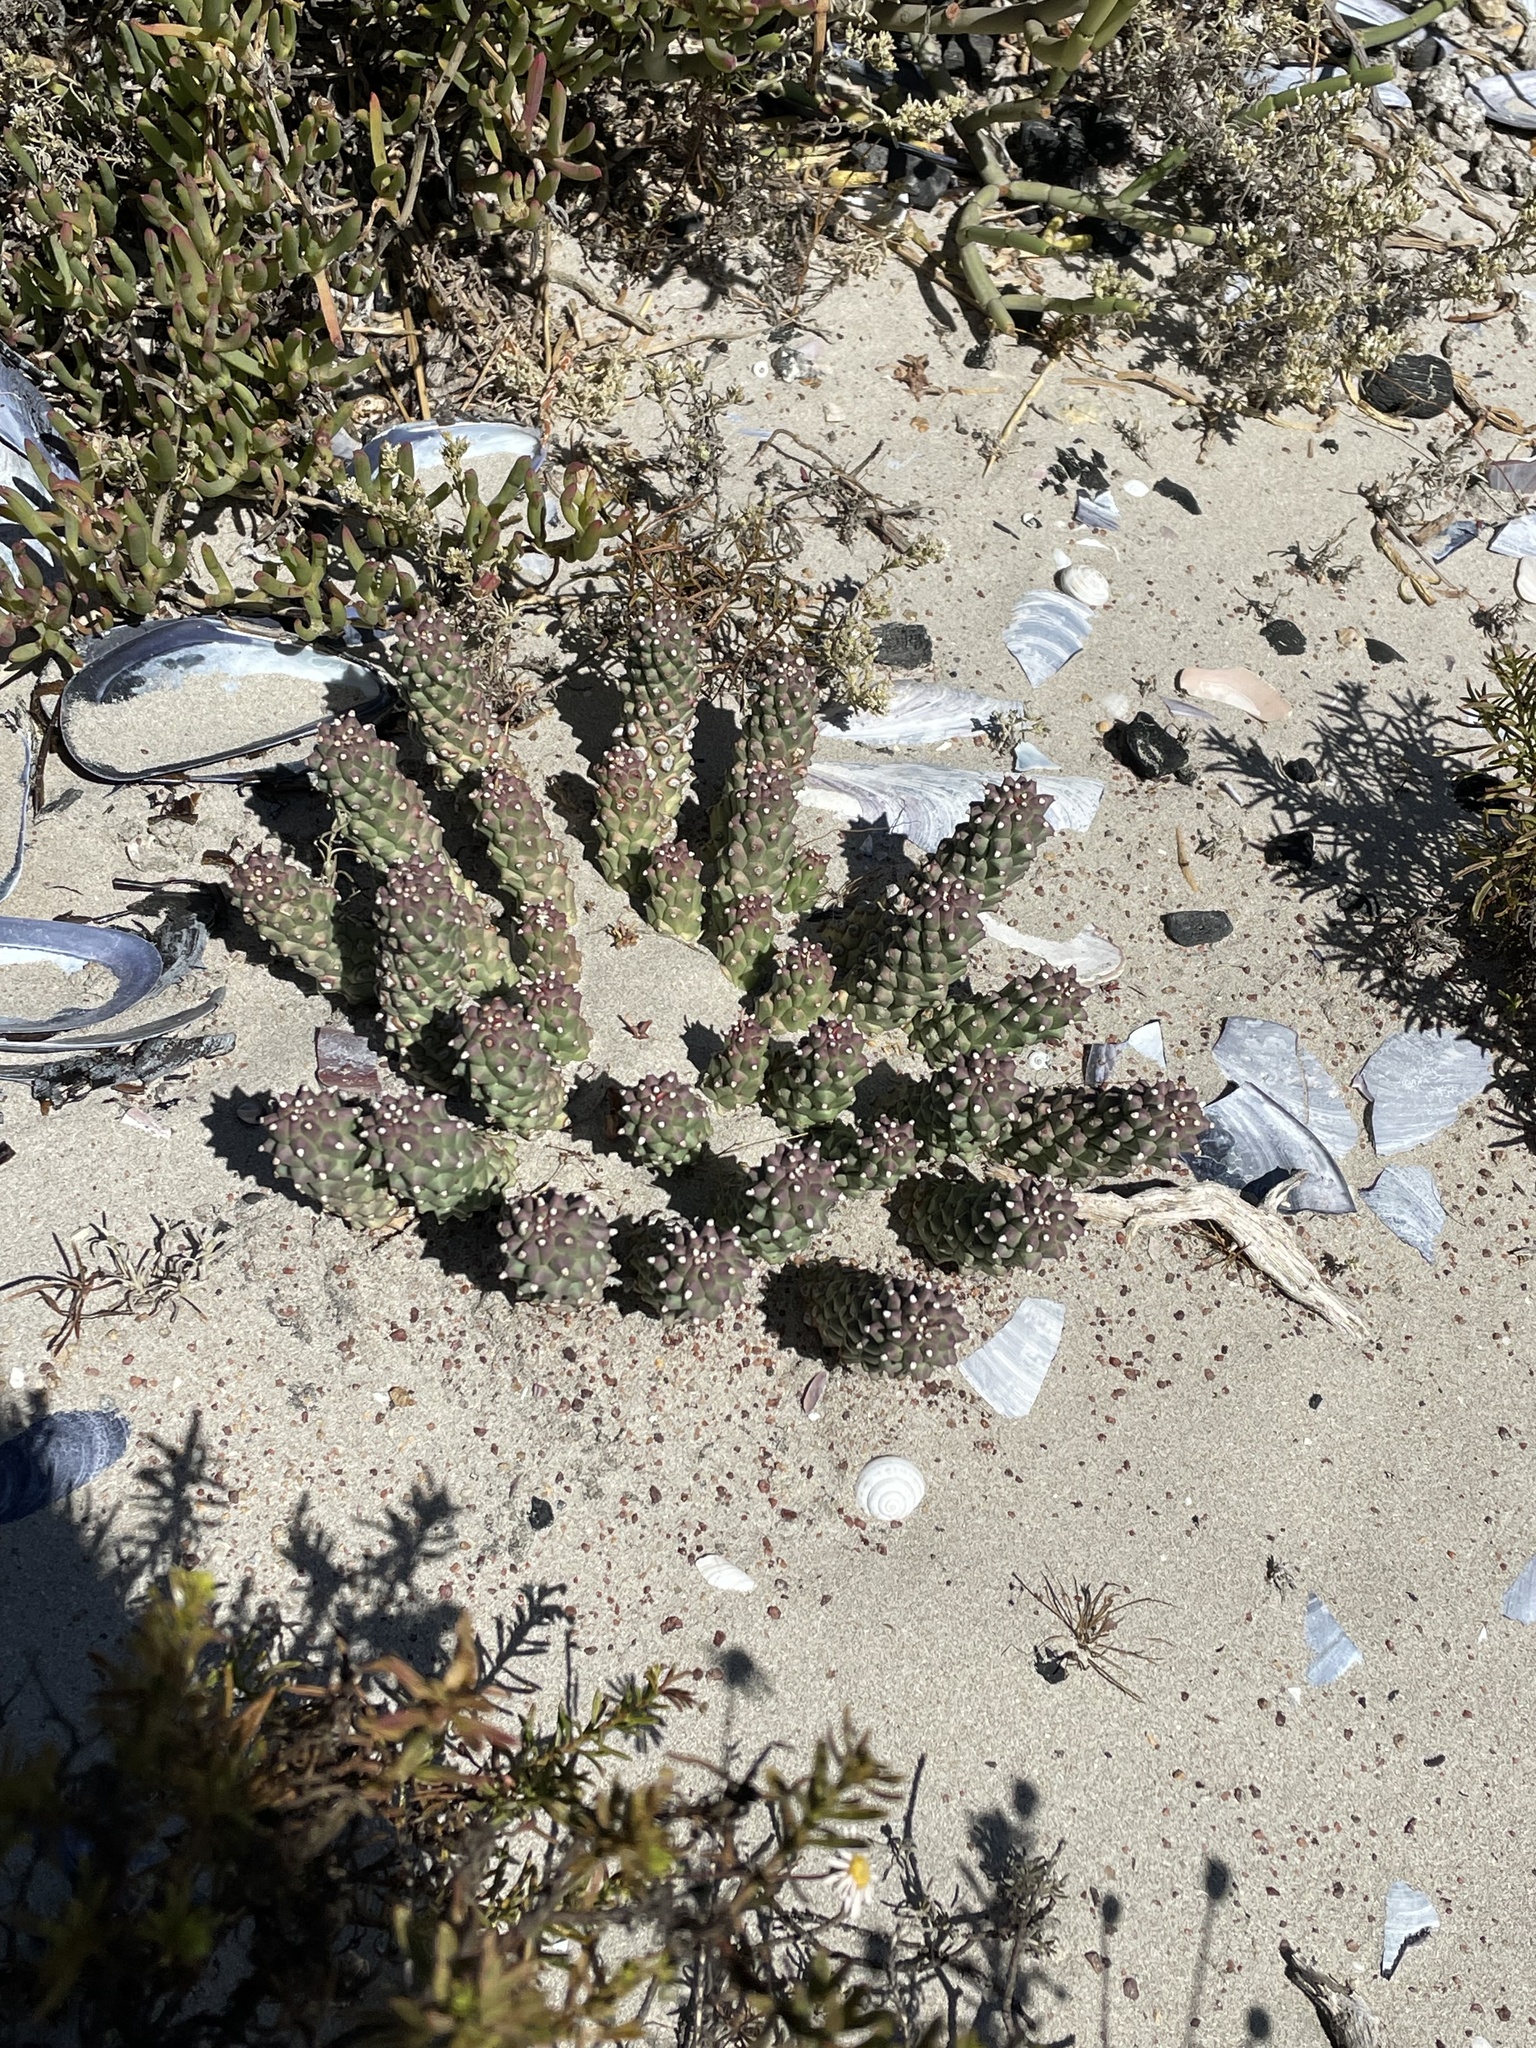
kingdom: Plantae
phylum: Tracheophyta
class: Magnoliopsida
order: Malpighiales
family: Euphorbiaceae
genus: Euphorbia
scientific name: Euphorbia caput-medusae
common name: Medusa's-head
